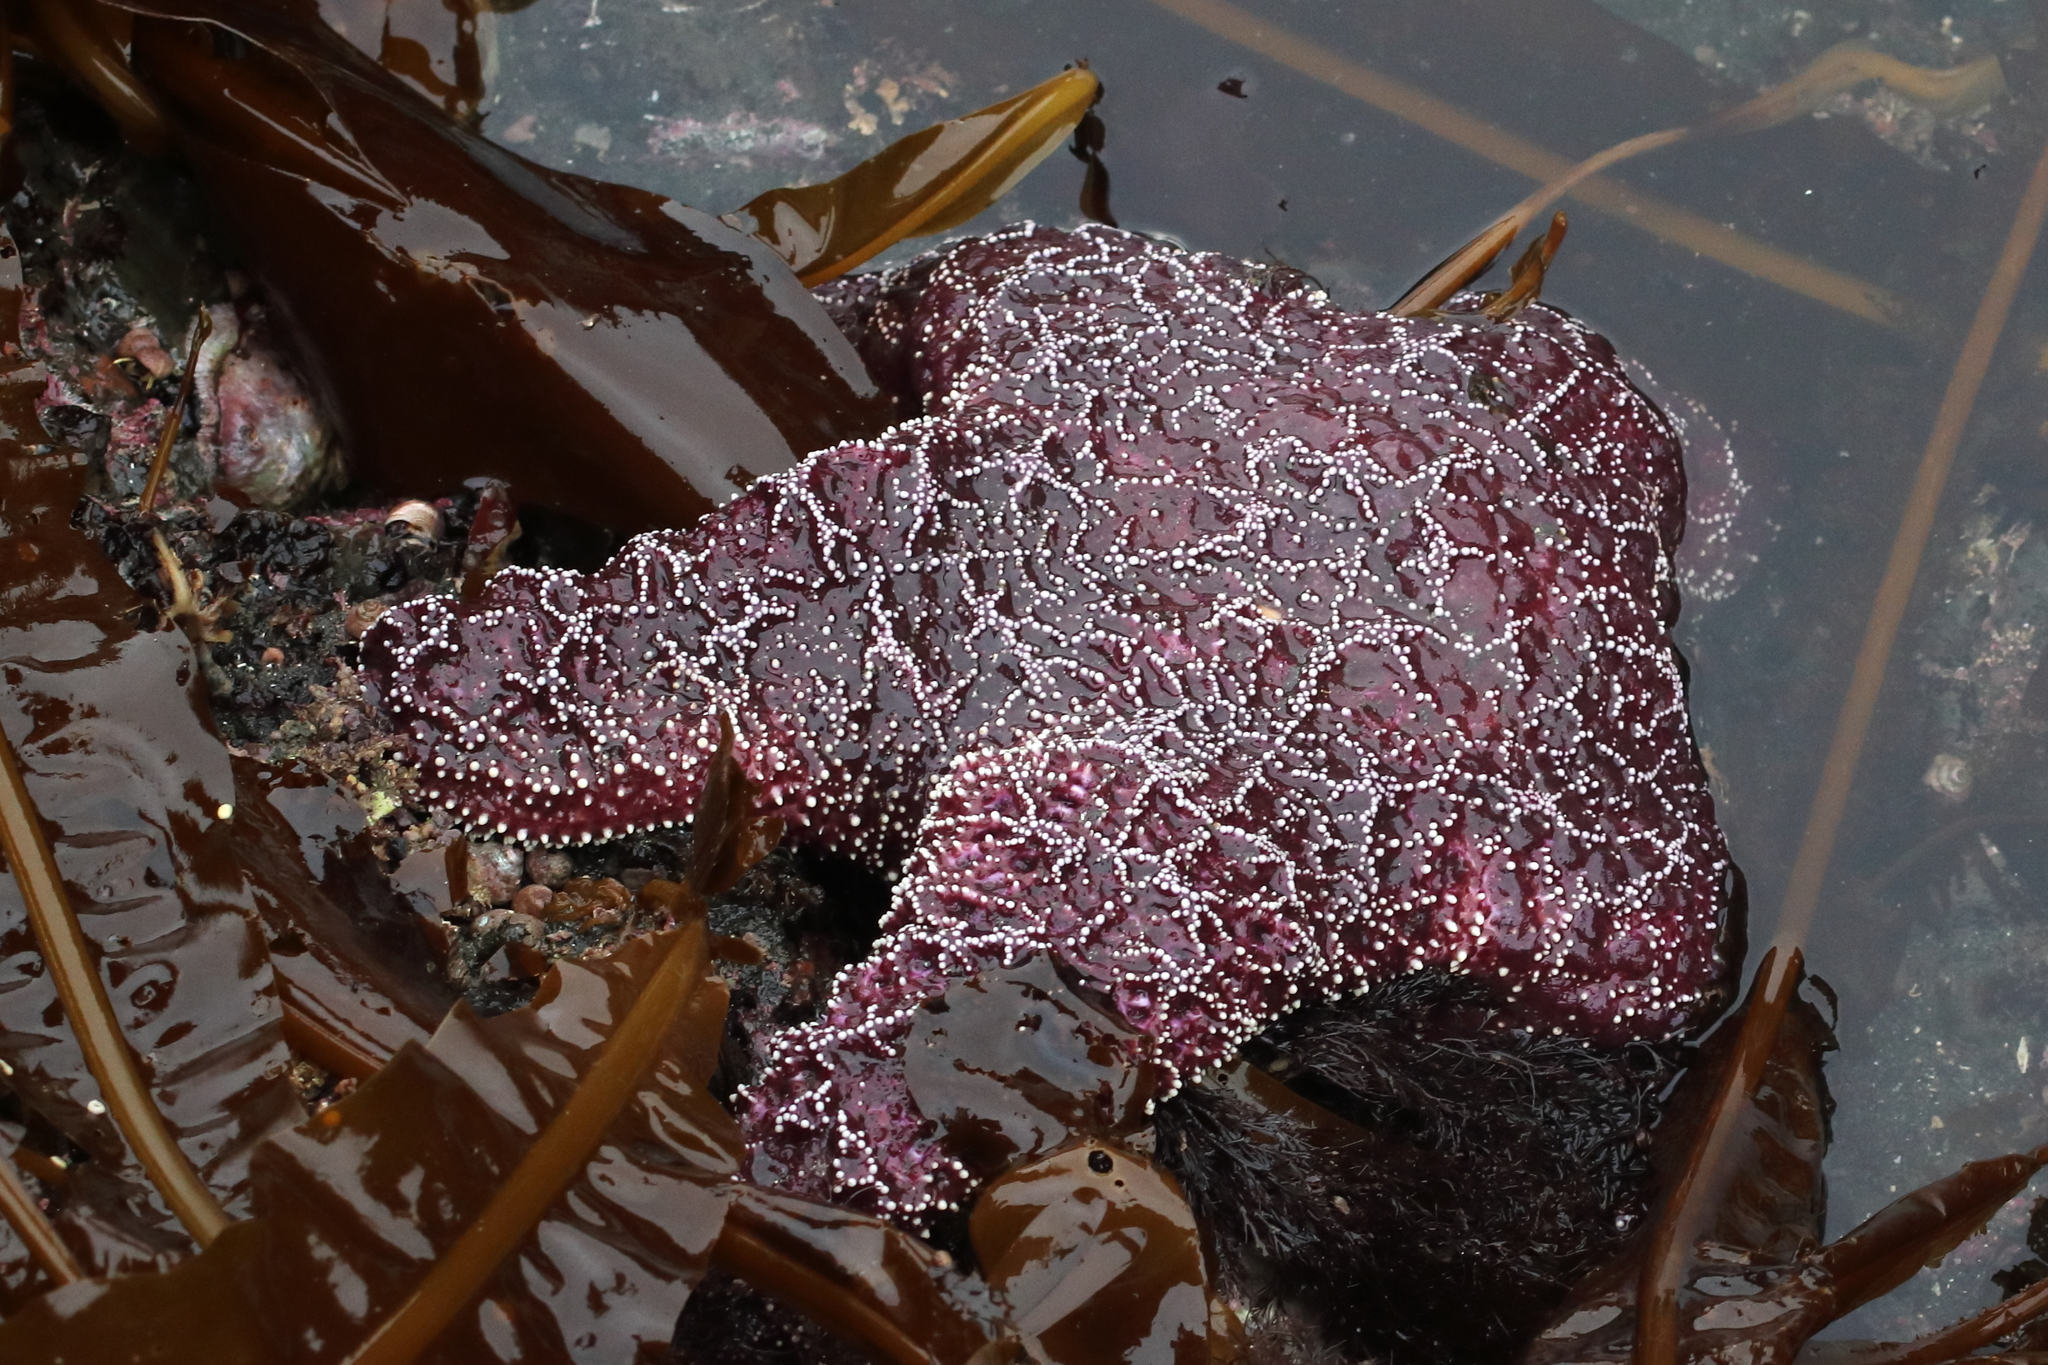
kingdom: Animalia
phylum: Echinodermata
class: Asteroidea
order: Forcipulatida
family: Asteriidae
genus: Pisaster
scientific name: Pisaster ochraceus
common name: Ochre stars
